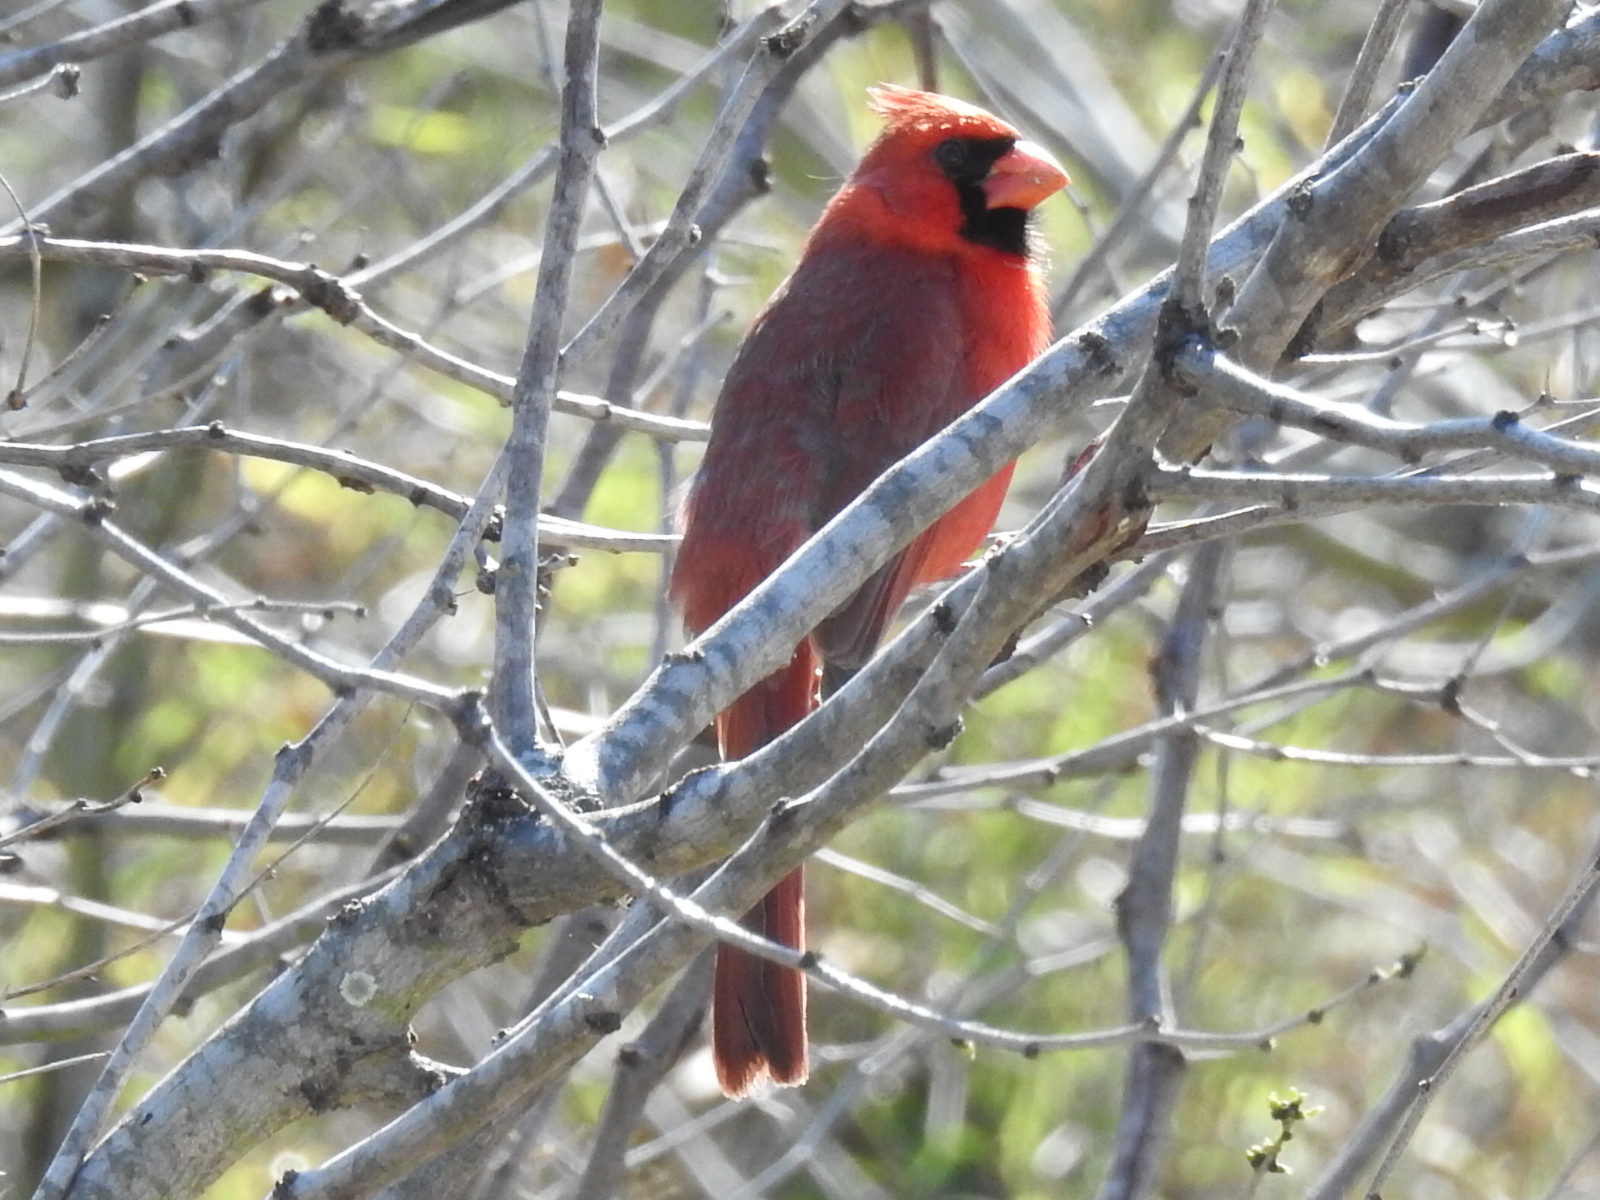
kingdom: Animalia
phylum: Chordata
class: Aves
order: Passeriformes
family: Cardinalidae
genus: Cardinalis
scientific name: Cardinalis cardinalis
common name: Northern cardinal
